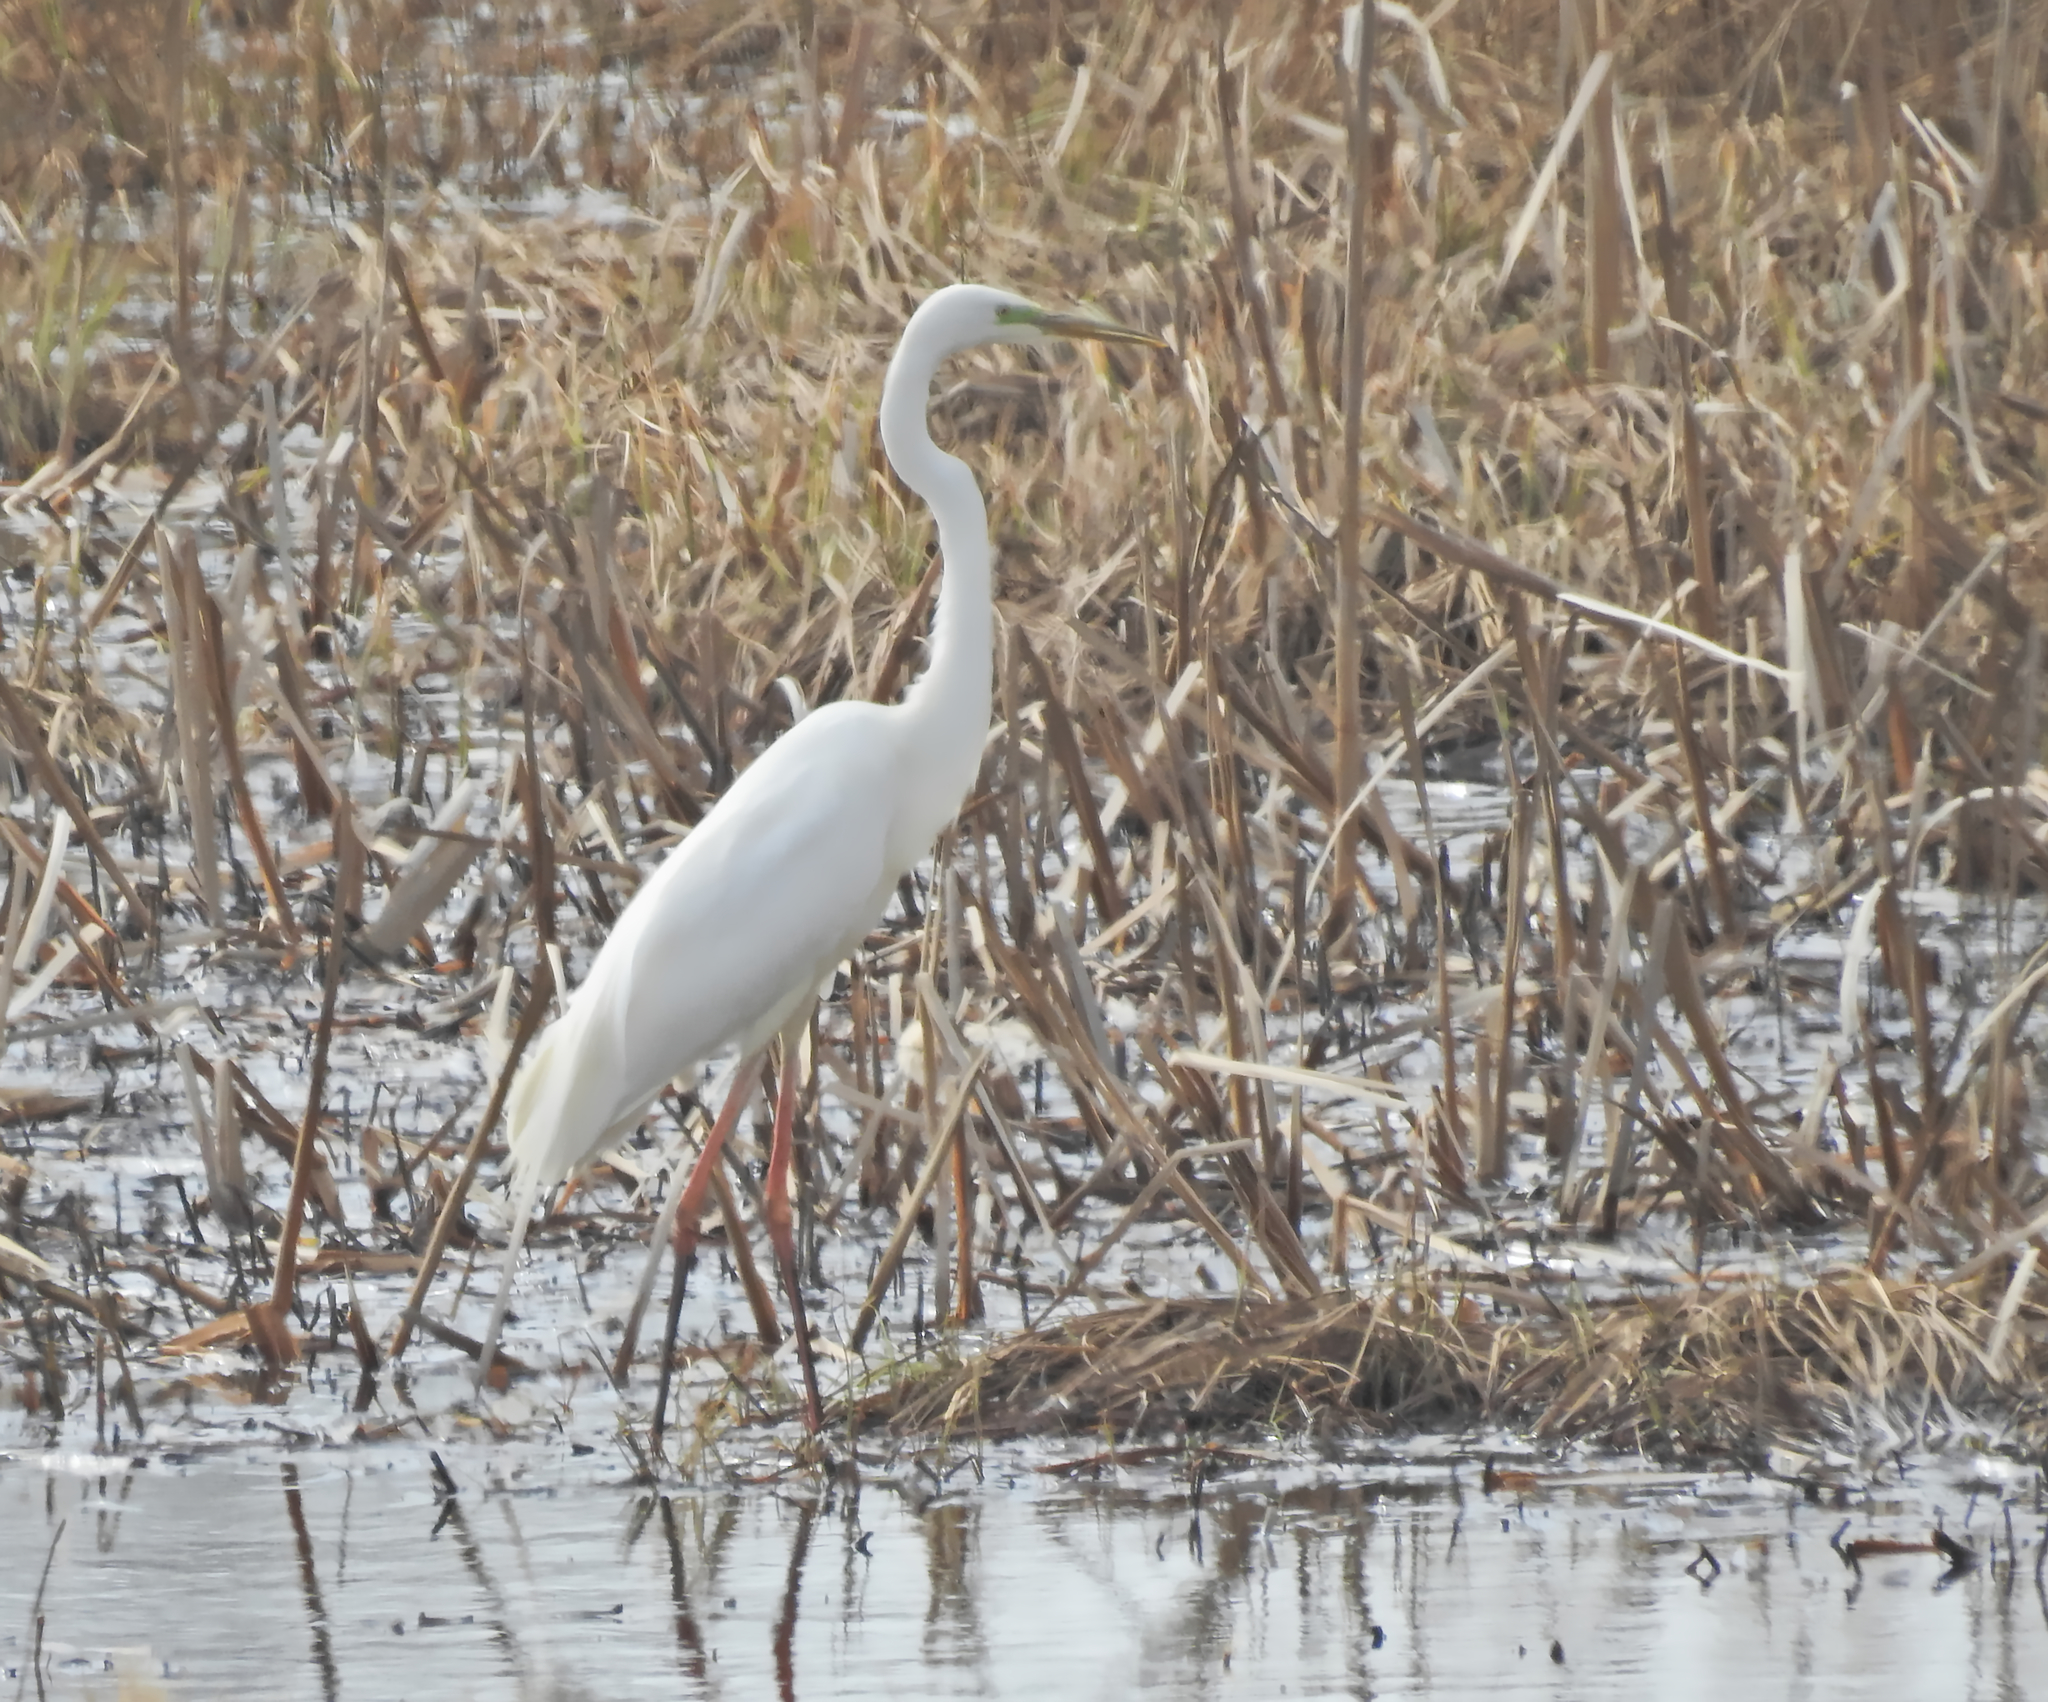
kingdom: Animalia
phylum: Chordata
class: Aves
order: Pelecaniformes
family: Ardeidae
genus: Ardea
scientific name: Ardea alba
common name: Great egret
